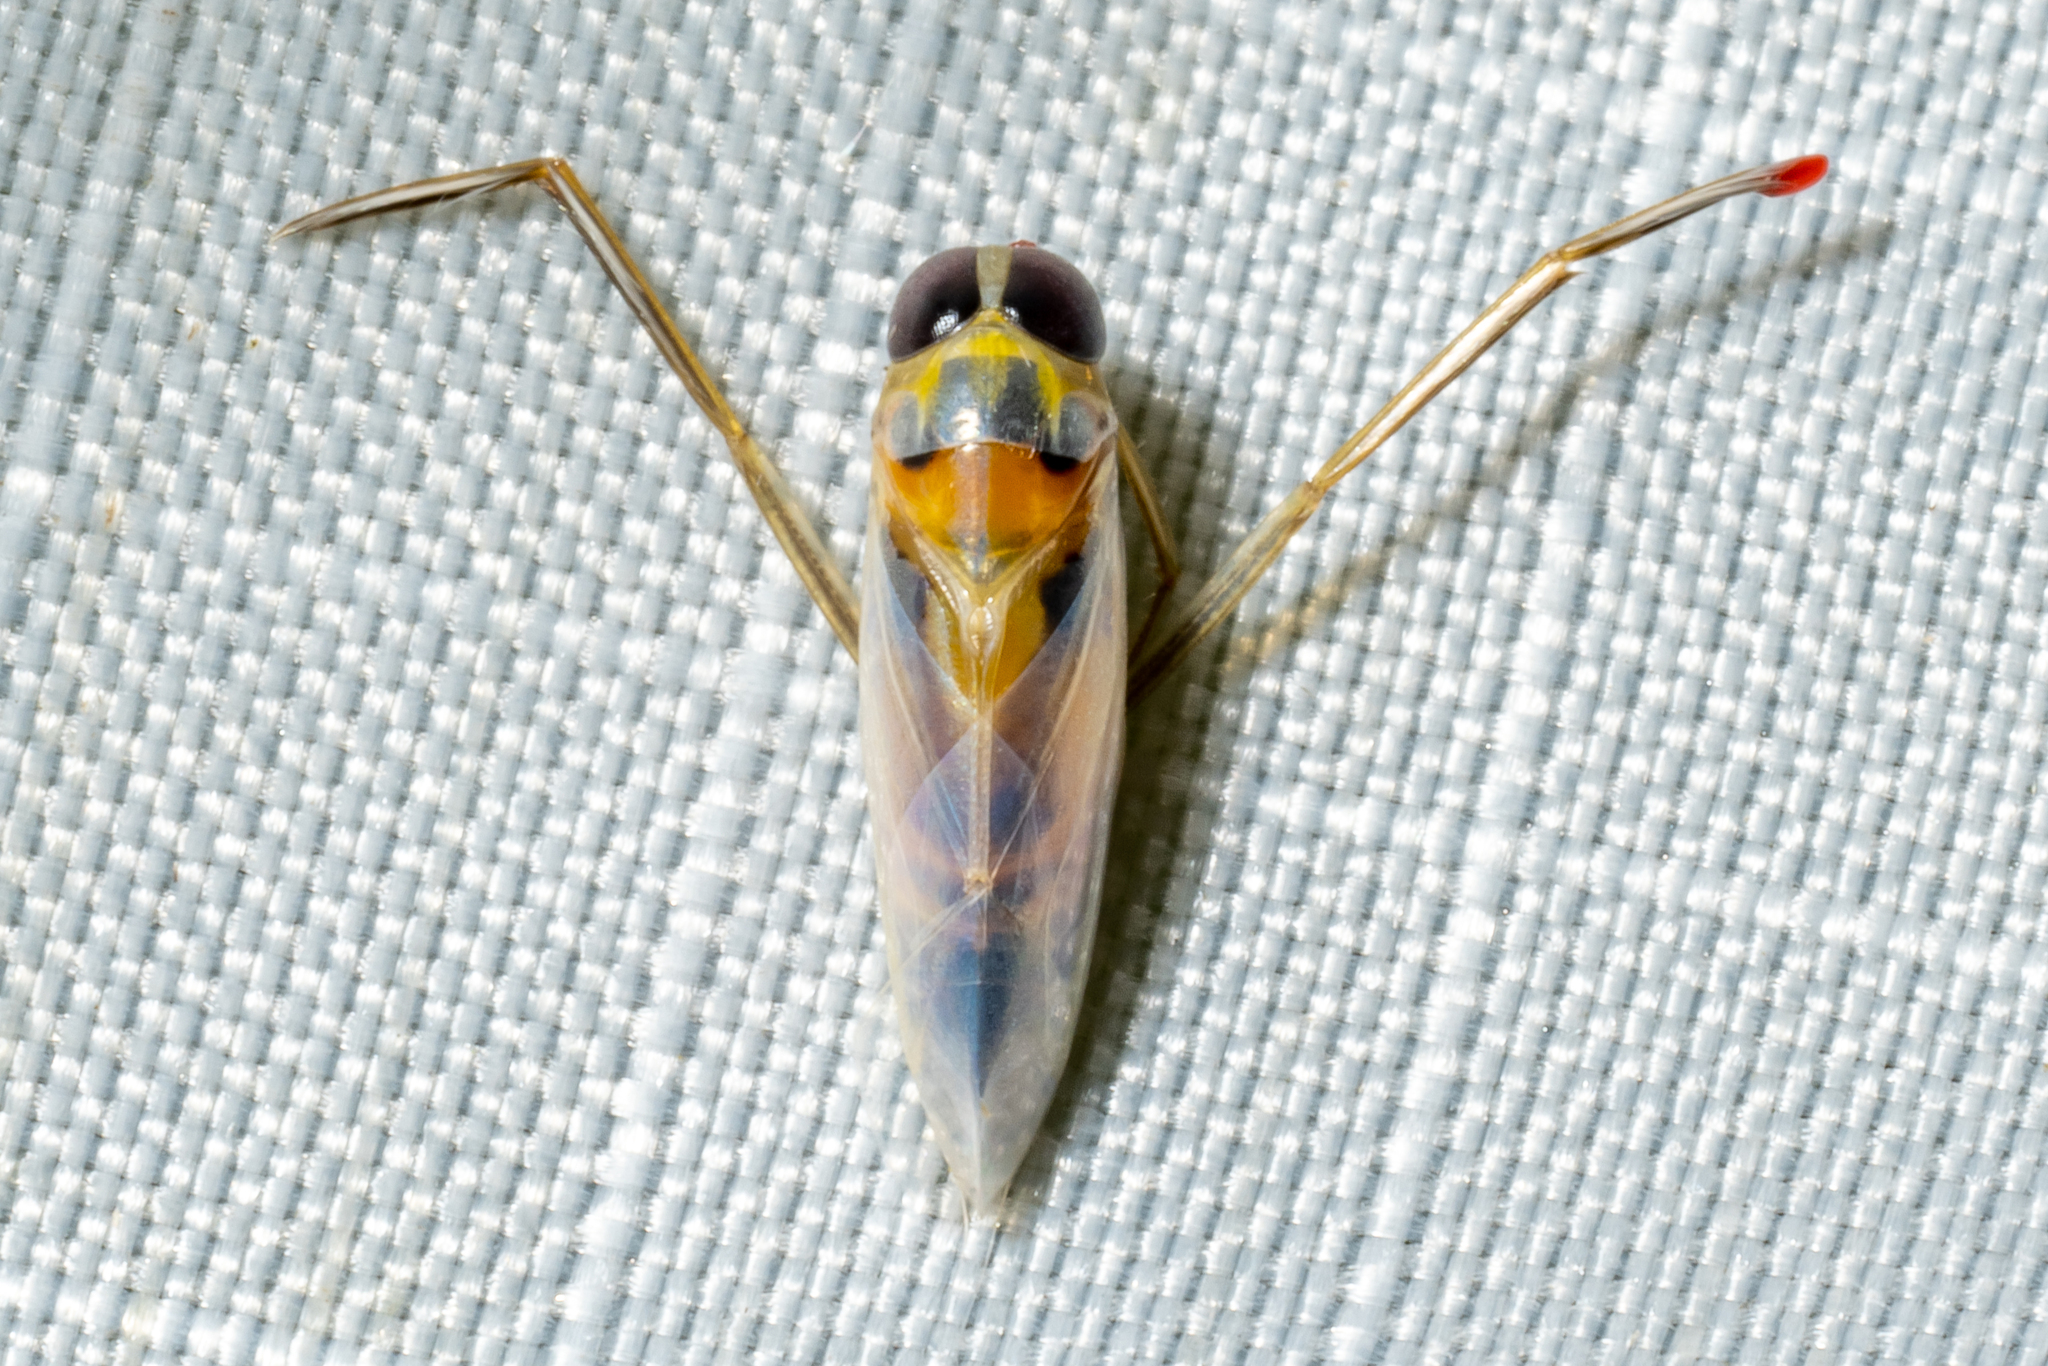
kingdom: Animalia
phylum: Arthropoda
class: Insecta
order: Hemiptera
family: Notonectidae
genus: Buenoa
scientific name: Buenoa
